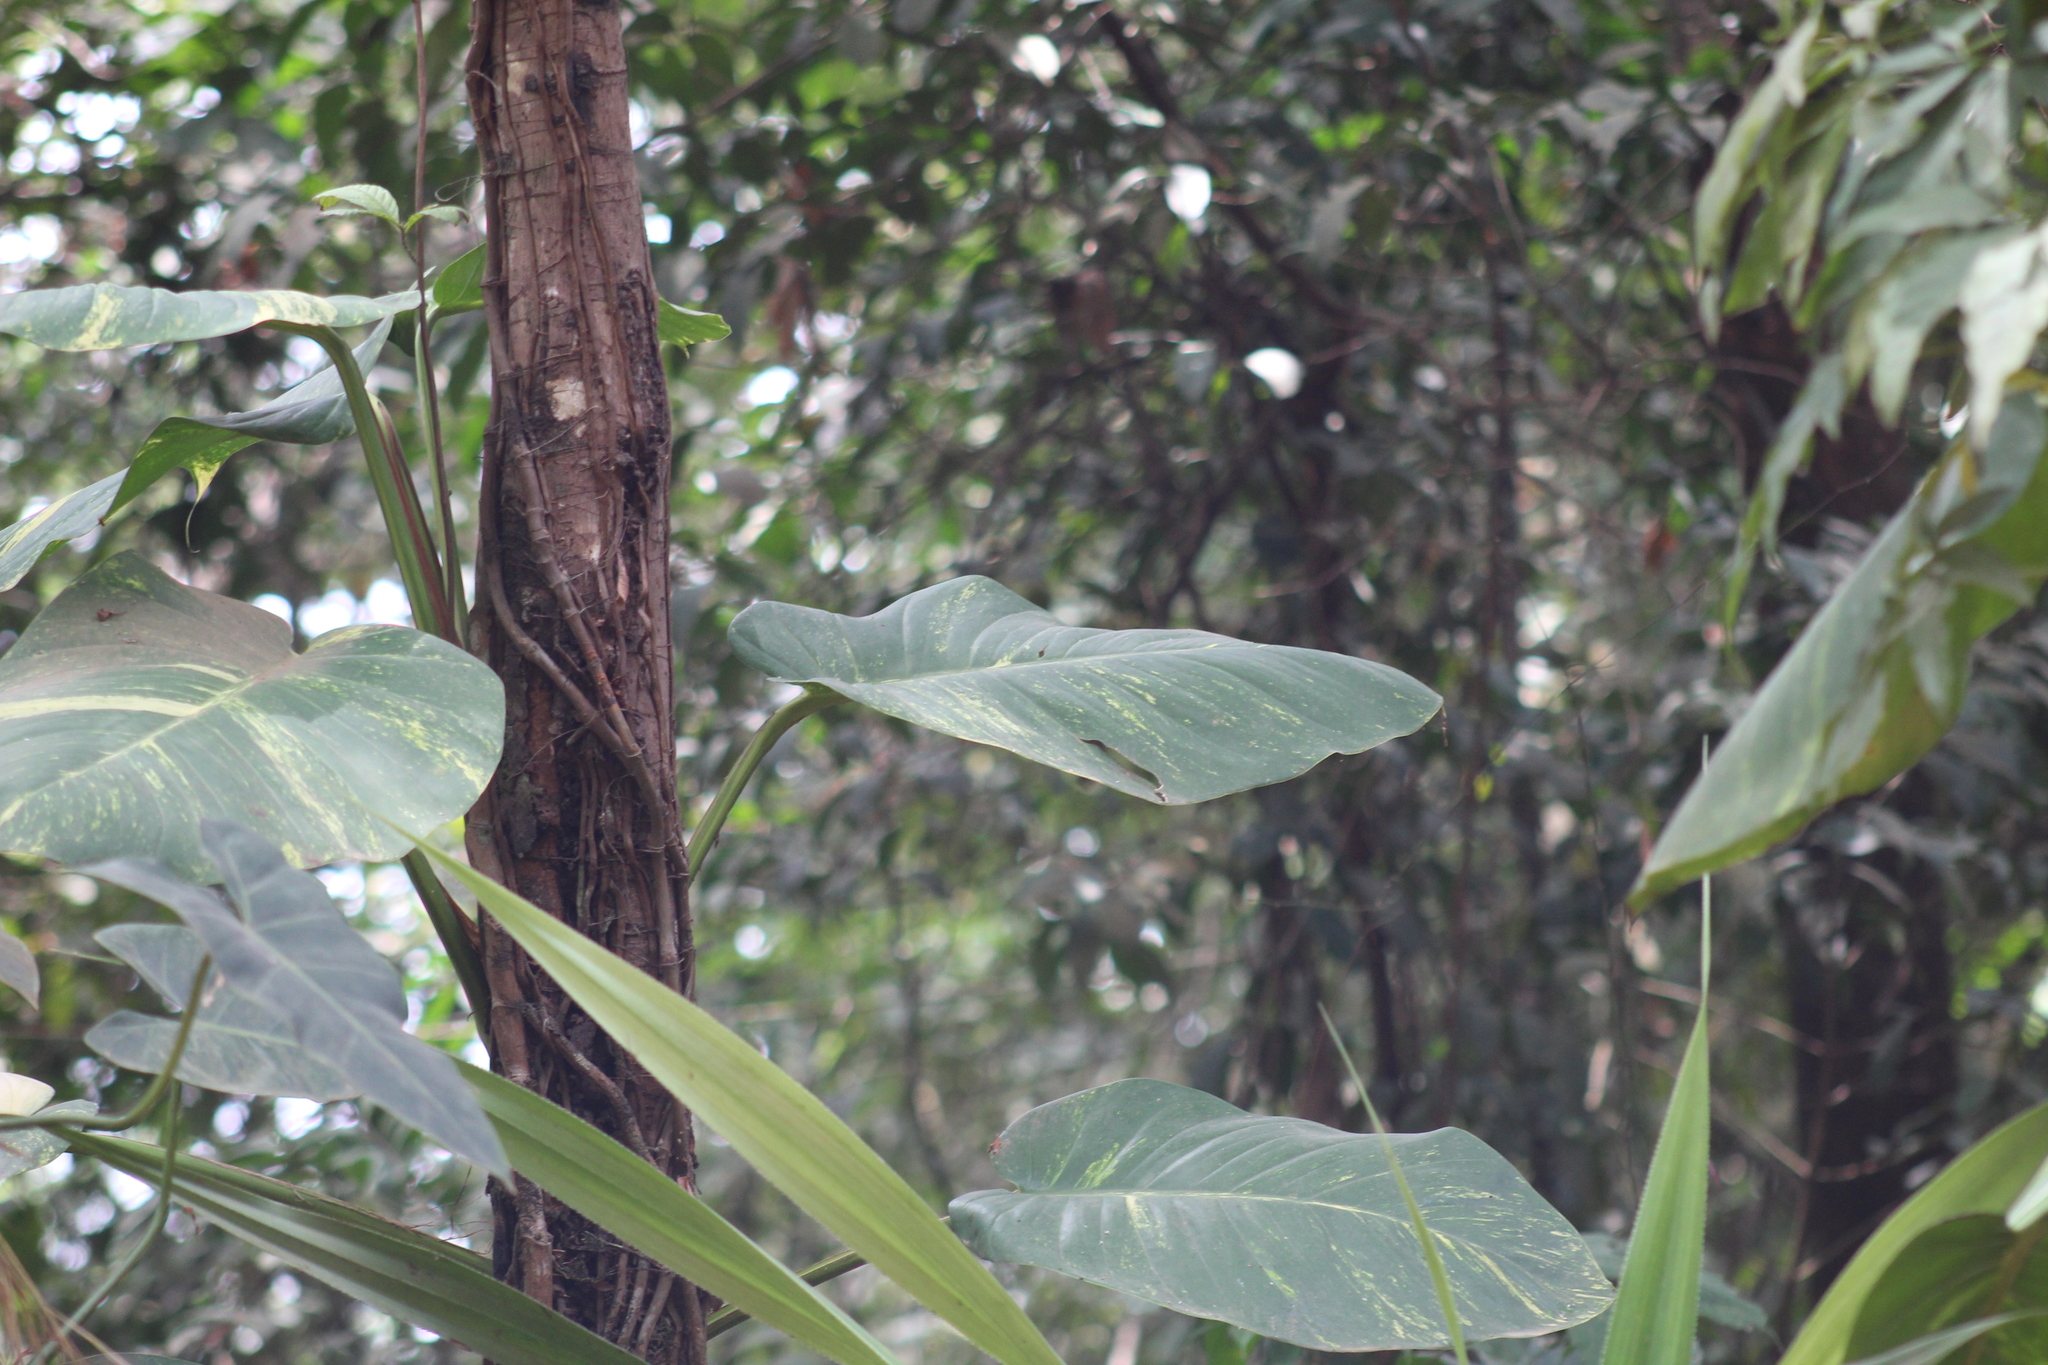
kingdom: Plantae
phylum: Tracheophyta
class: Liliopsida
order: Alismatales
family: Araceae
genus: Epipremnum
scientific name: Epipremnum aureum
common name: Golden hunter's-robe
